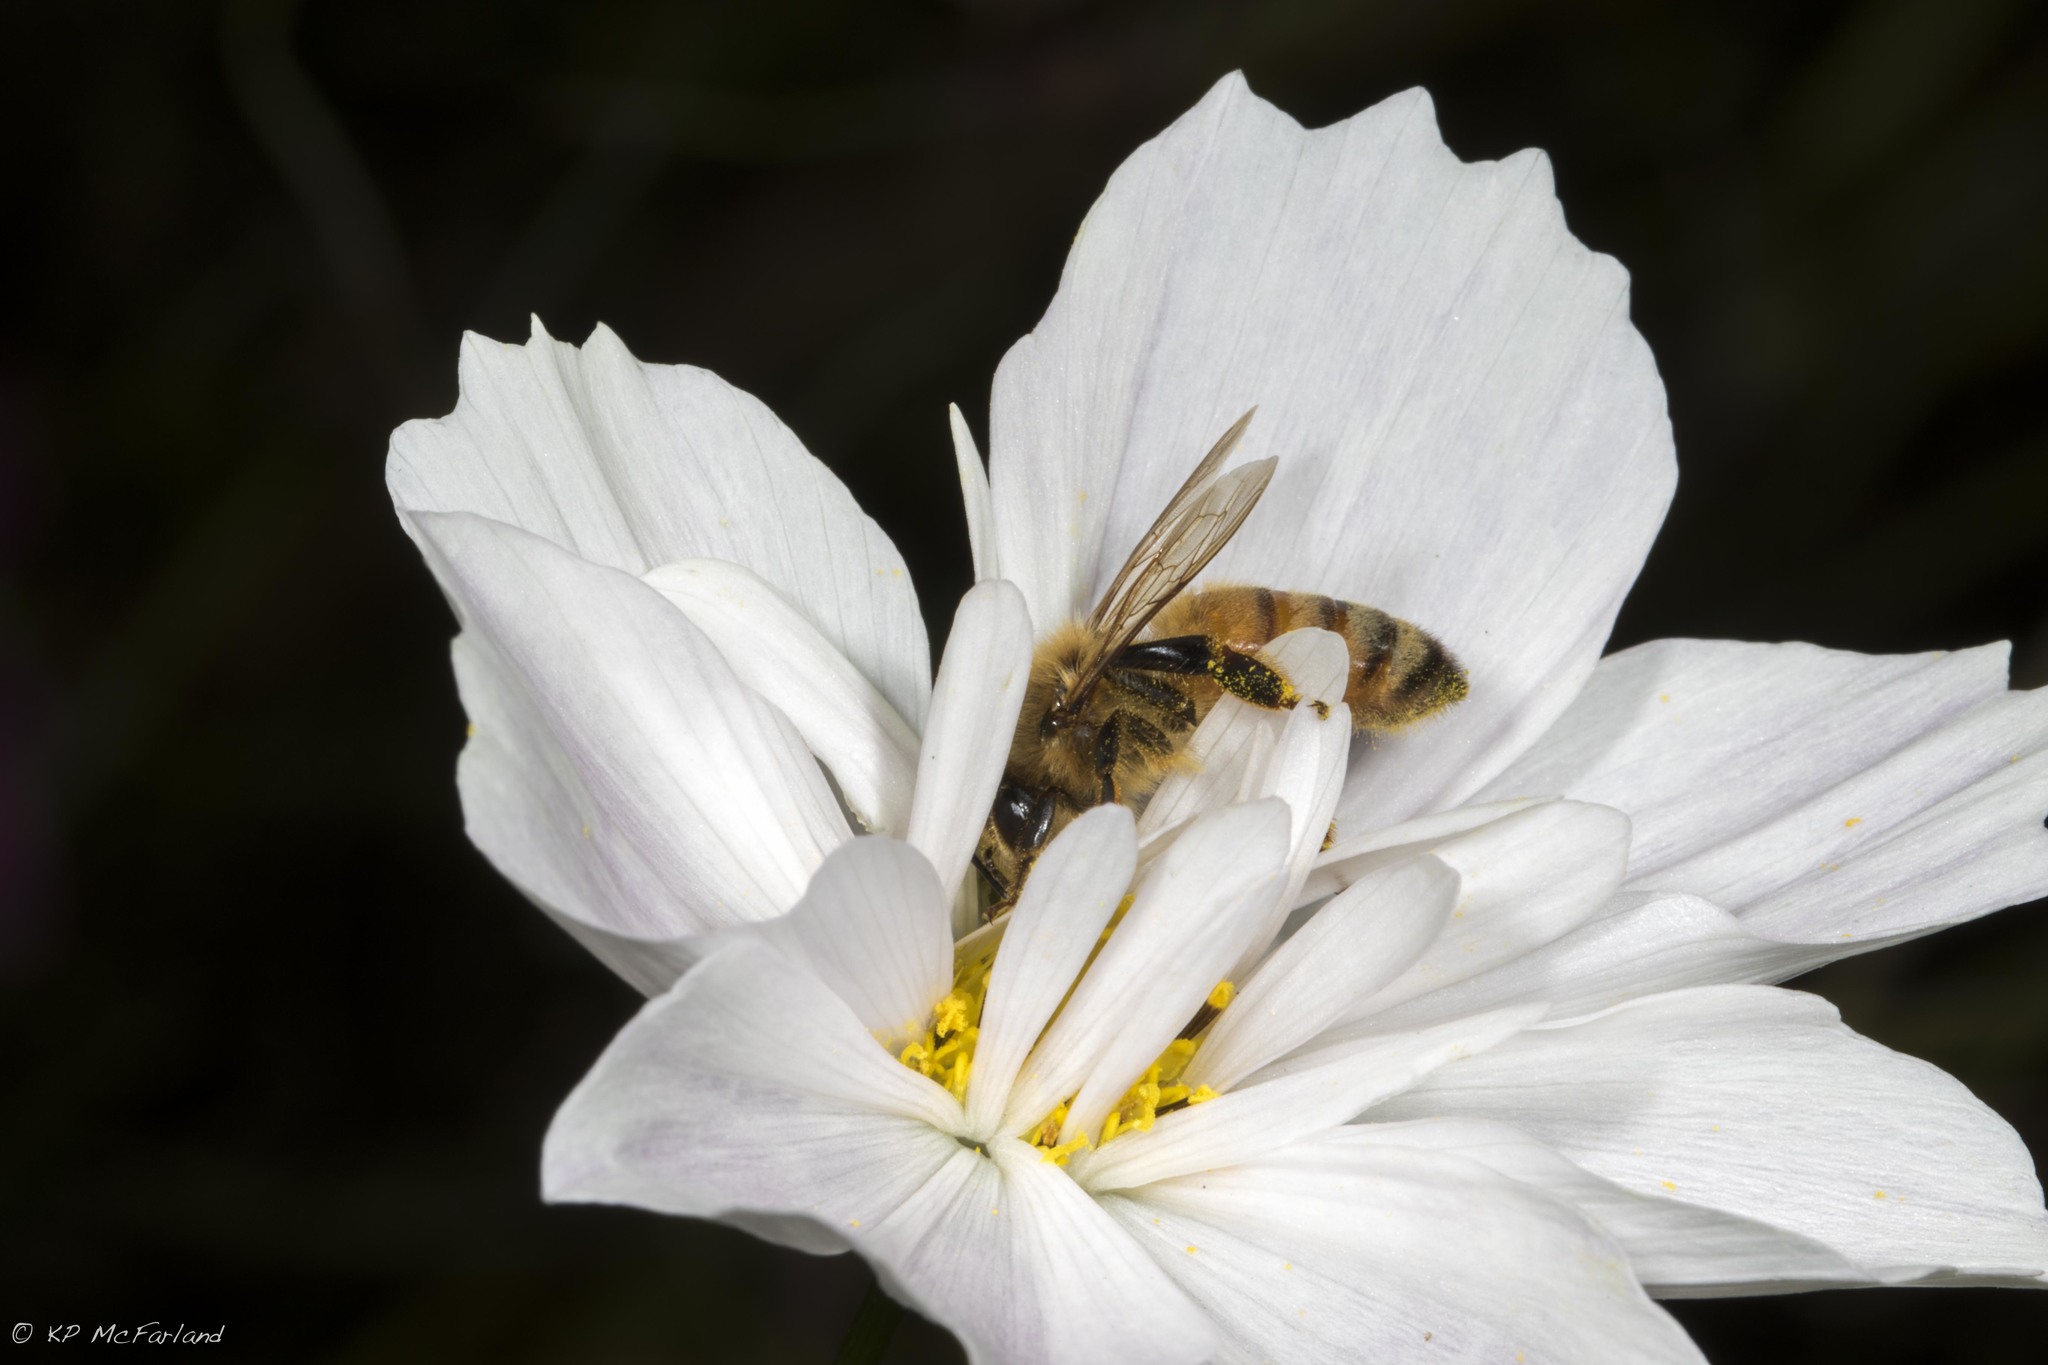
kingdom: Animalia
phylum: Arthropoda
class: Insecta
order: Hymenoptera
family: Apidae
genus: Apis
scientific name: Apis mellifera
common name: Honey bee
